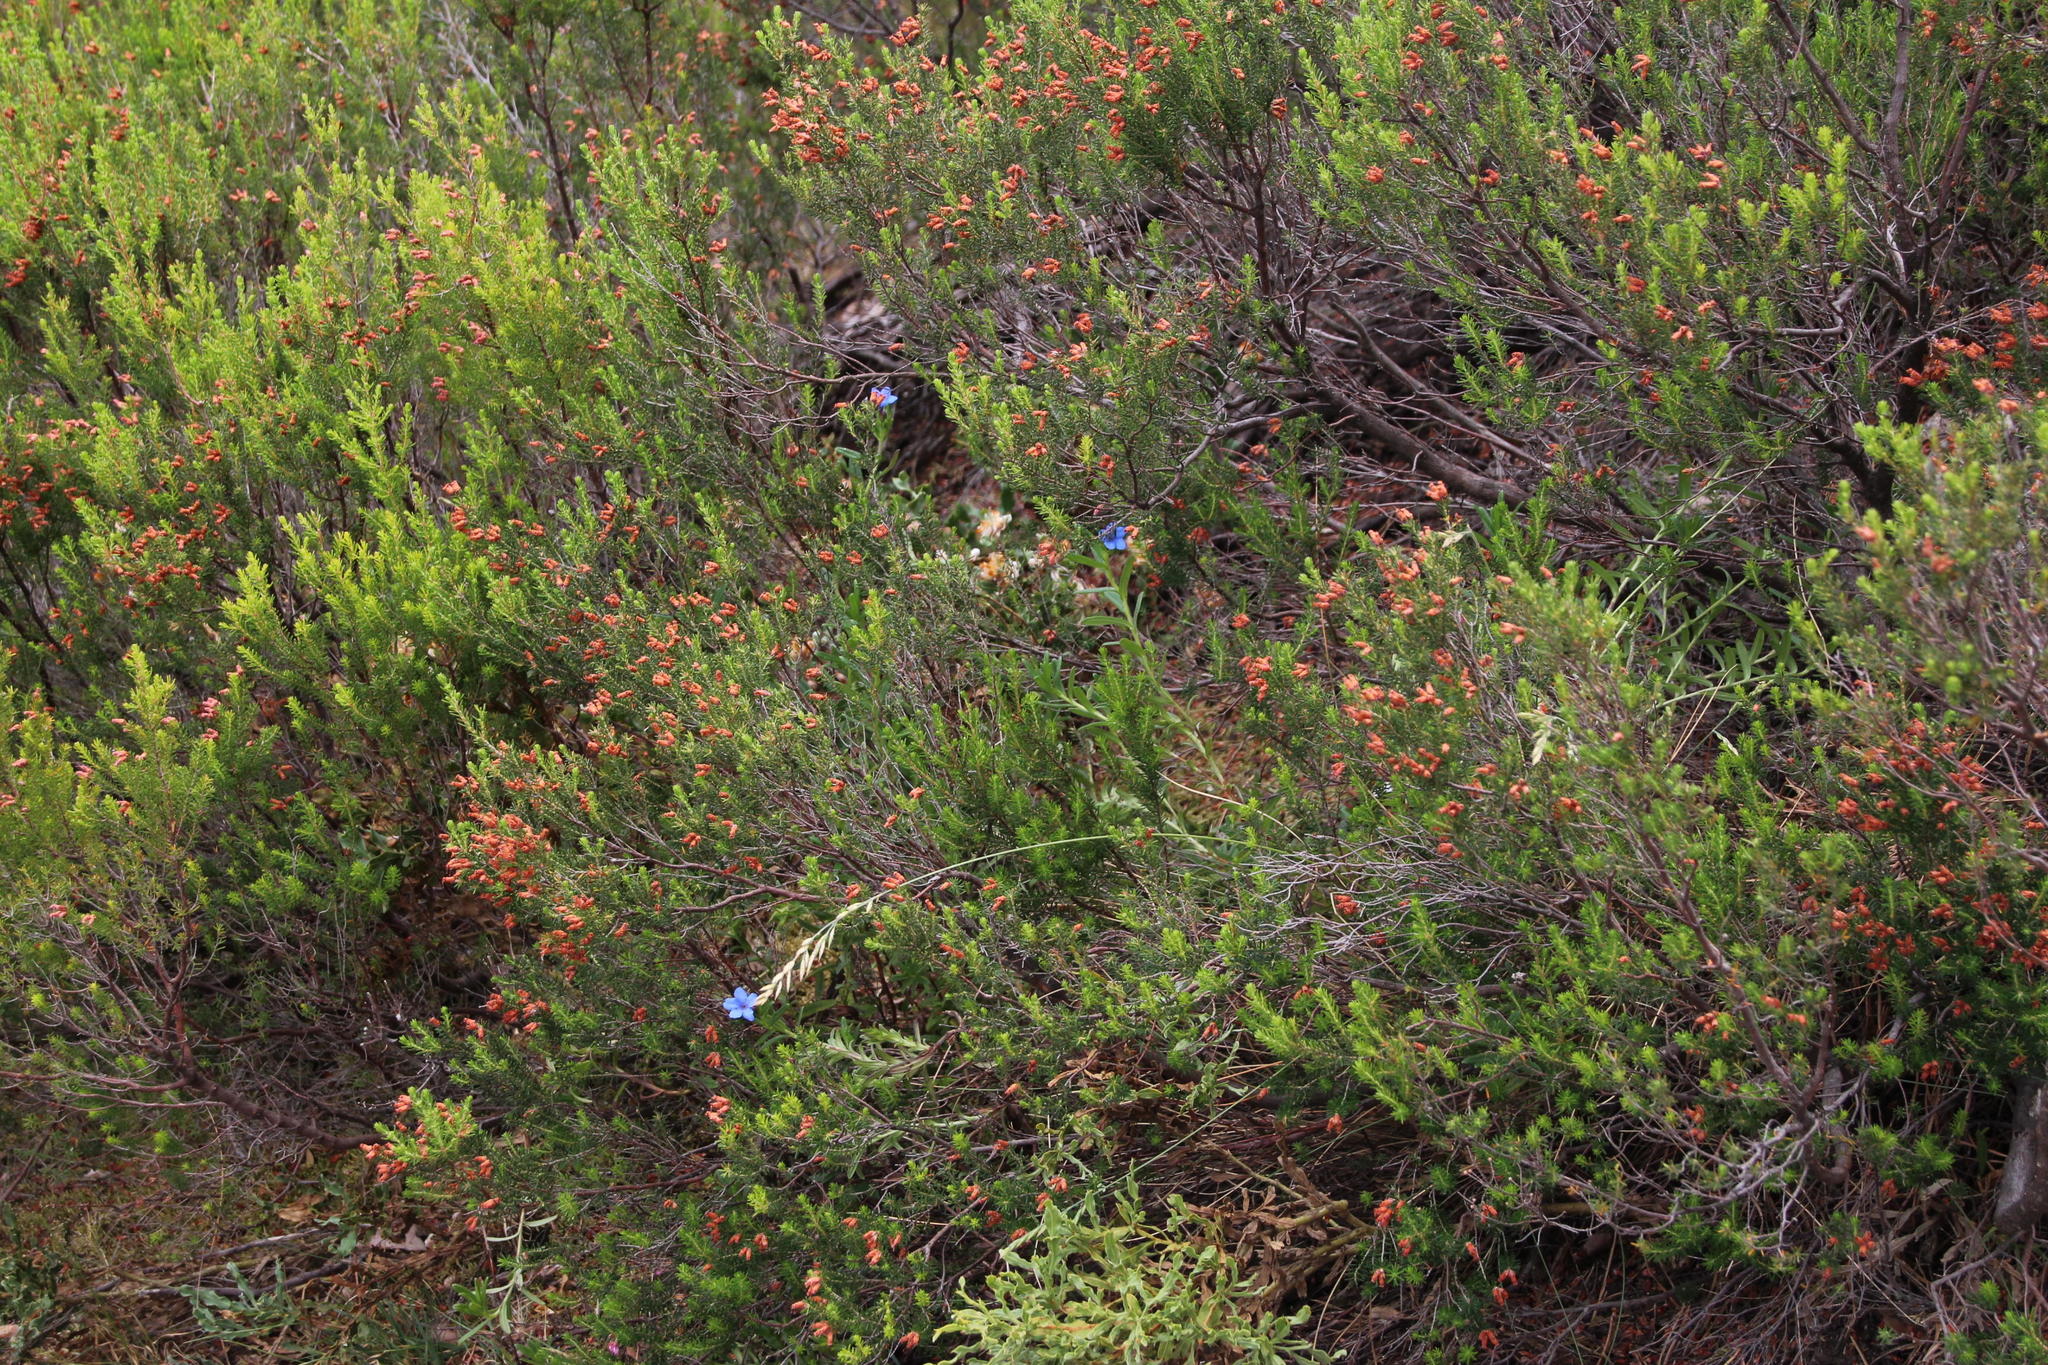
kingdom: Plantae
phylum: Tracheophyta
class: Magnoliopsida
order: Boraginales
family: Boraginaceae
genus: Glandora
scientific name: Glandora prostrata
